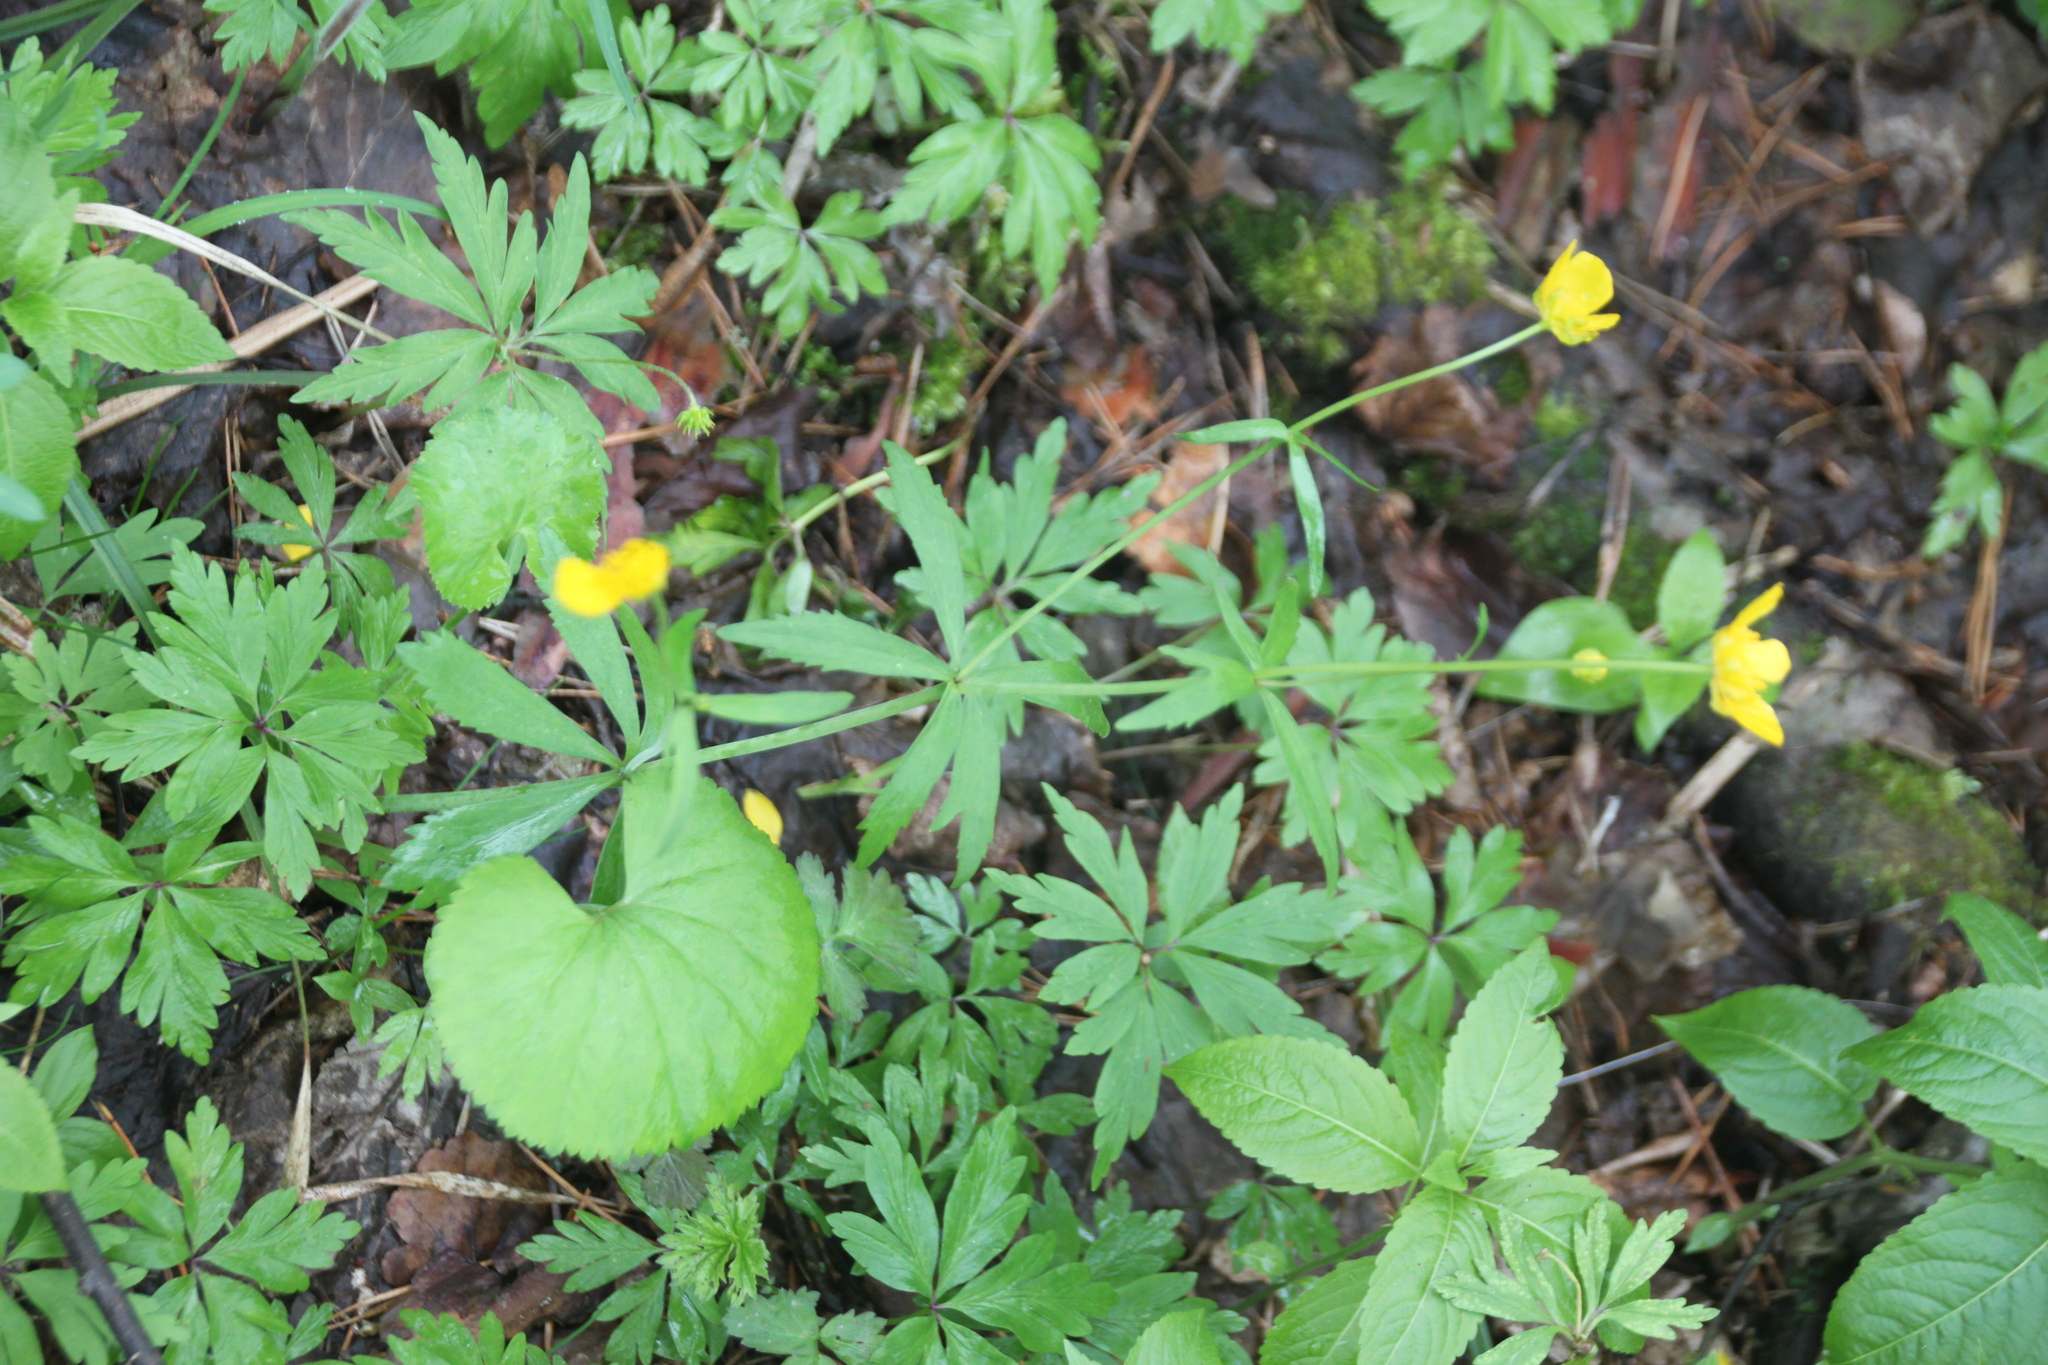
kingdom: Plantae
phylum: Tracheophyta
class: Magnoliopsida
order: Ranunculales
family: Ranunculaceae
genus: Ranunculus
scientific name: Ranunculus cassubicus
